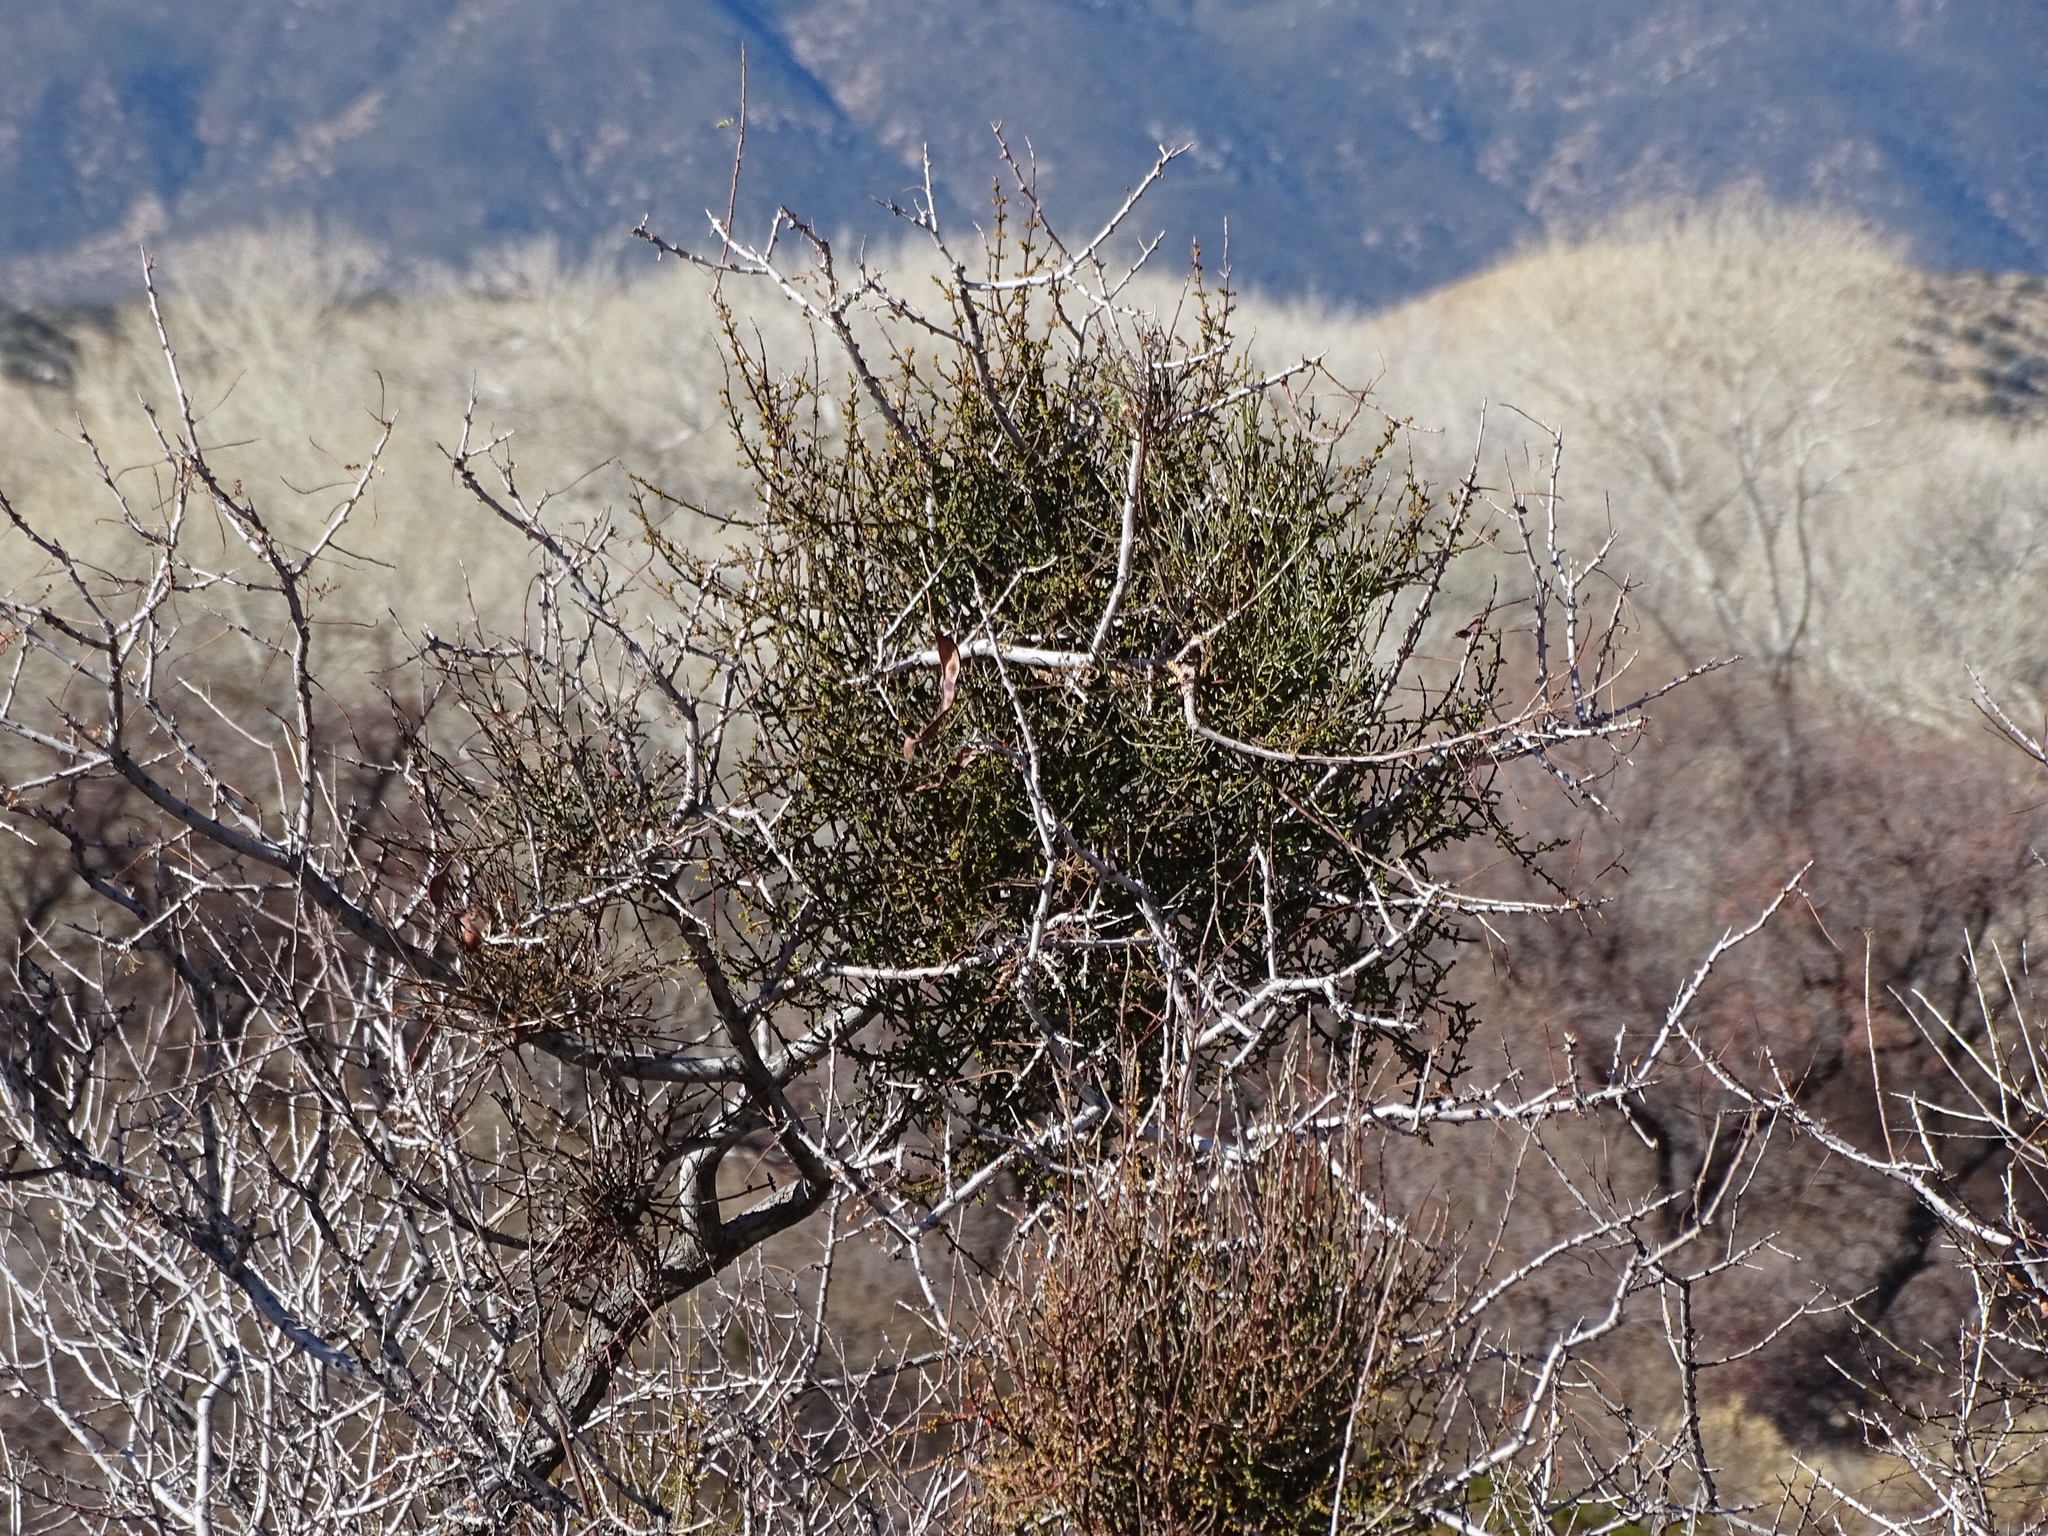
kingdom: Plantae
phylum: Tracheophyta
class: Magnoliopsida
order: Santalales
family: Viscaceae
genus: Phoradendron
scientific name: Phoradendron californicum
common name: Acacia mistletoe
